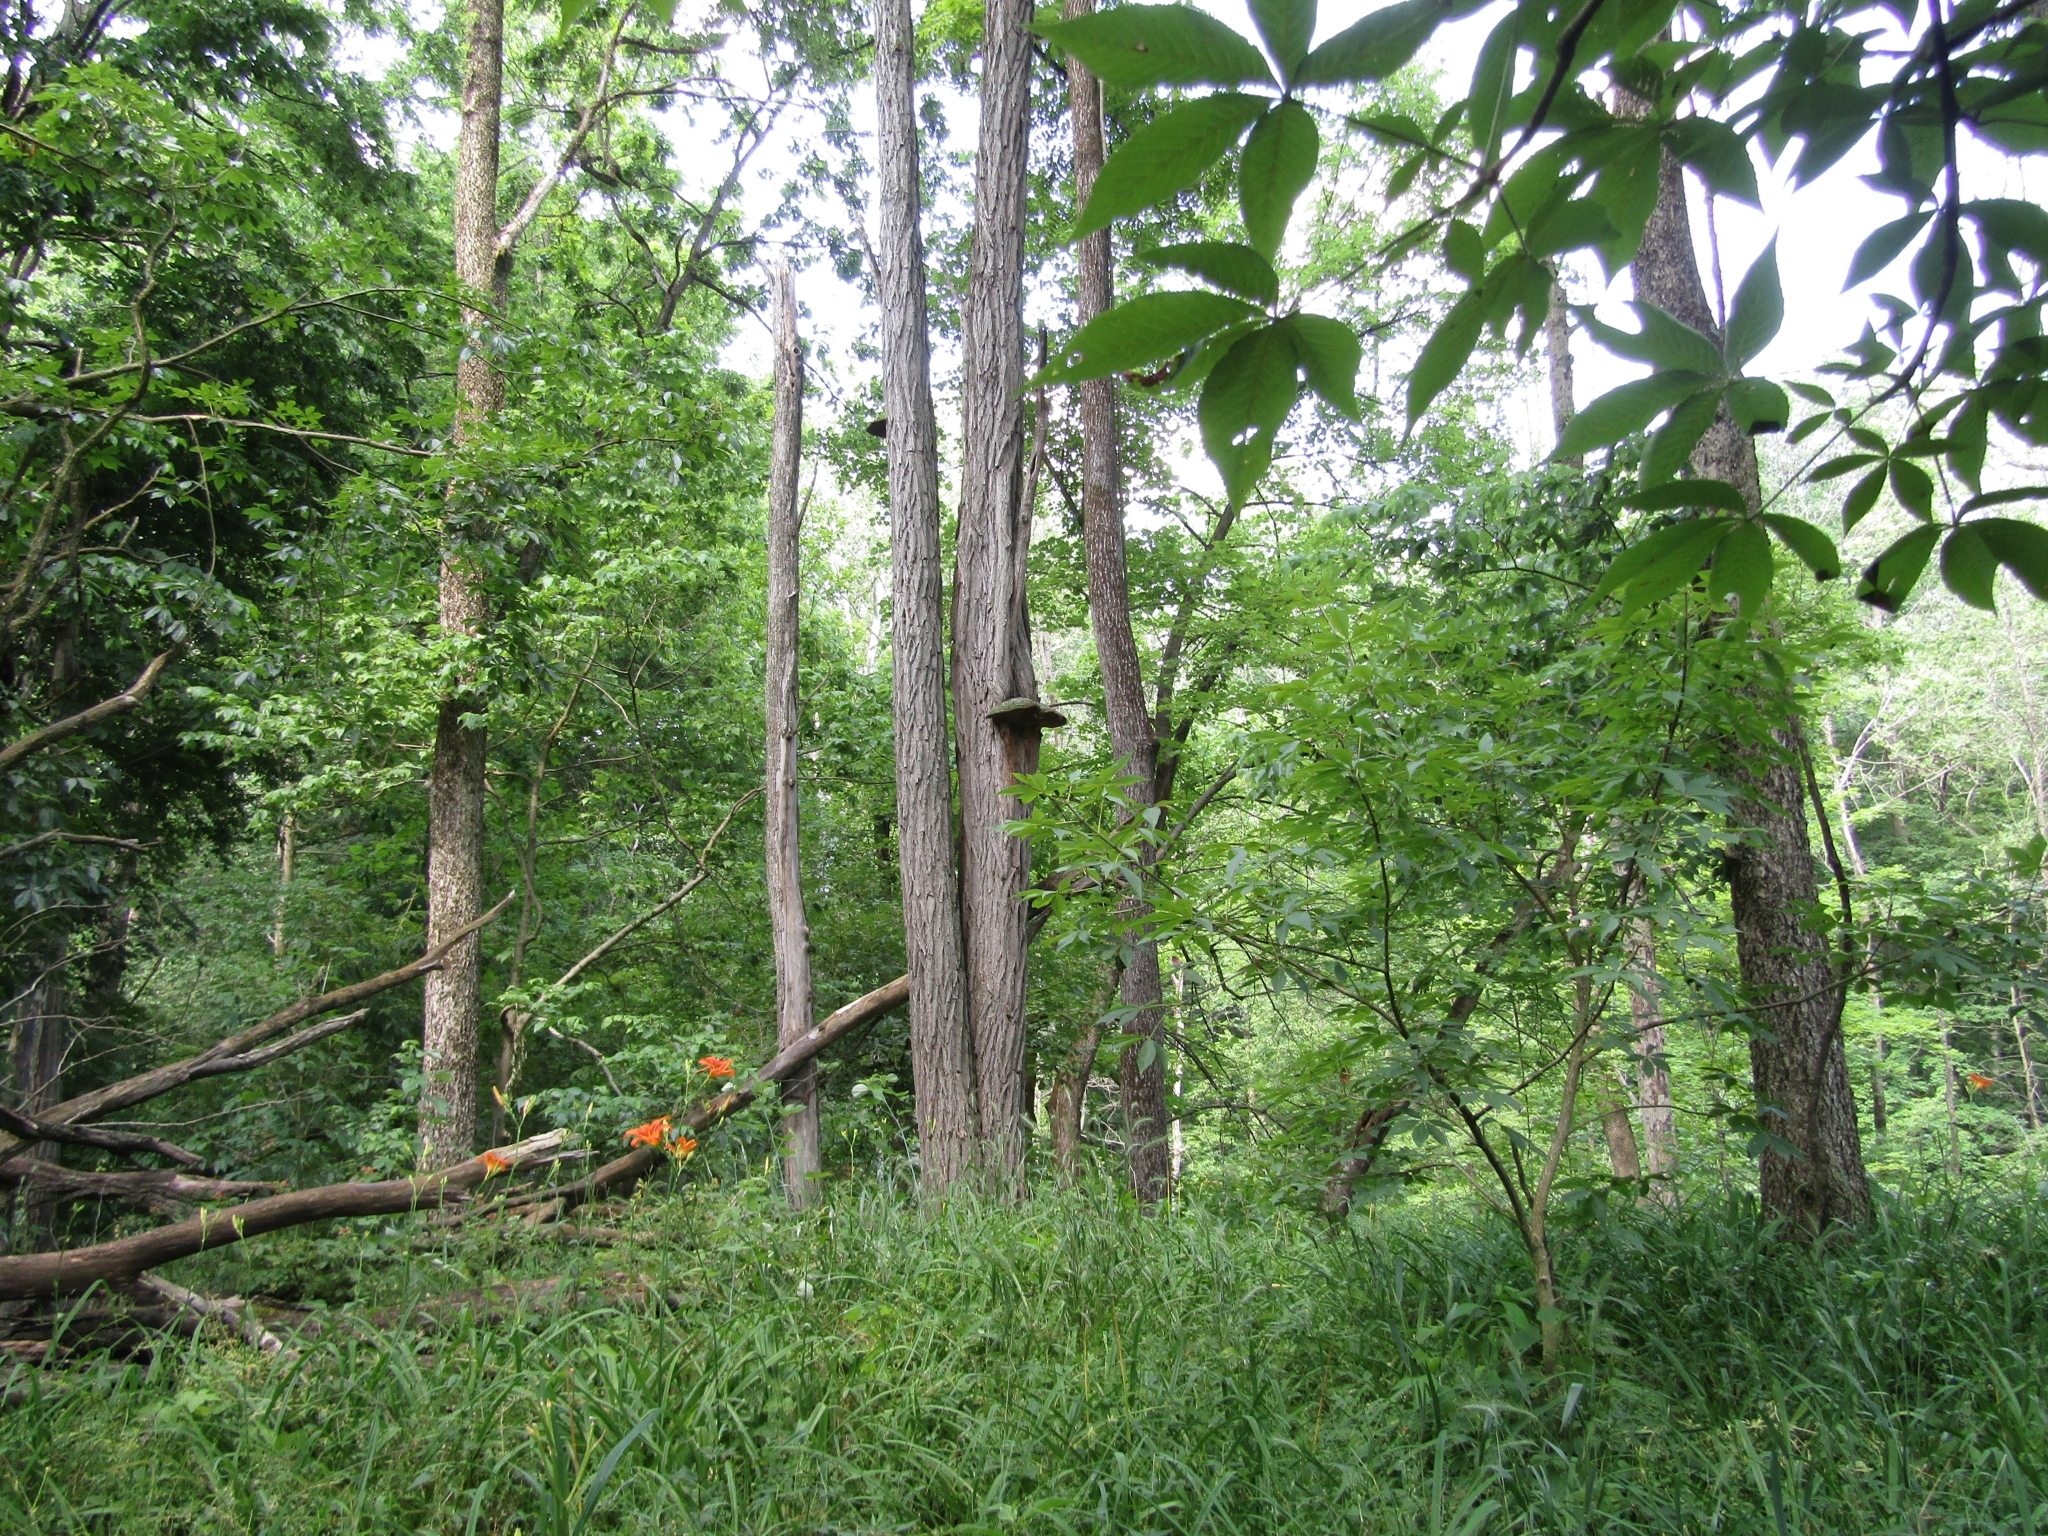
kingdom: Fungi
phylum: Basidiomycota
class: Agaricomycetes
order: Hymenochaetales
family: Hymenochaetaceae
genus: Phellinus
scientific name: Phellinus robiniae
